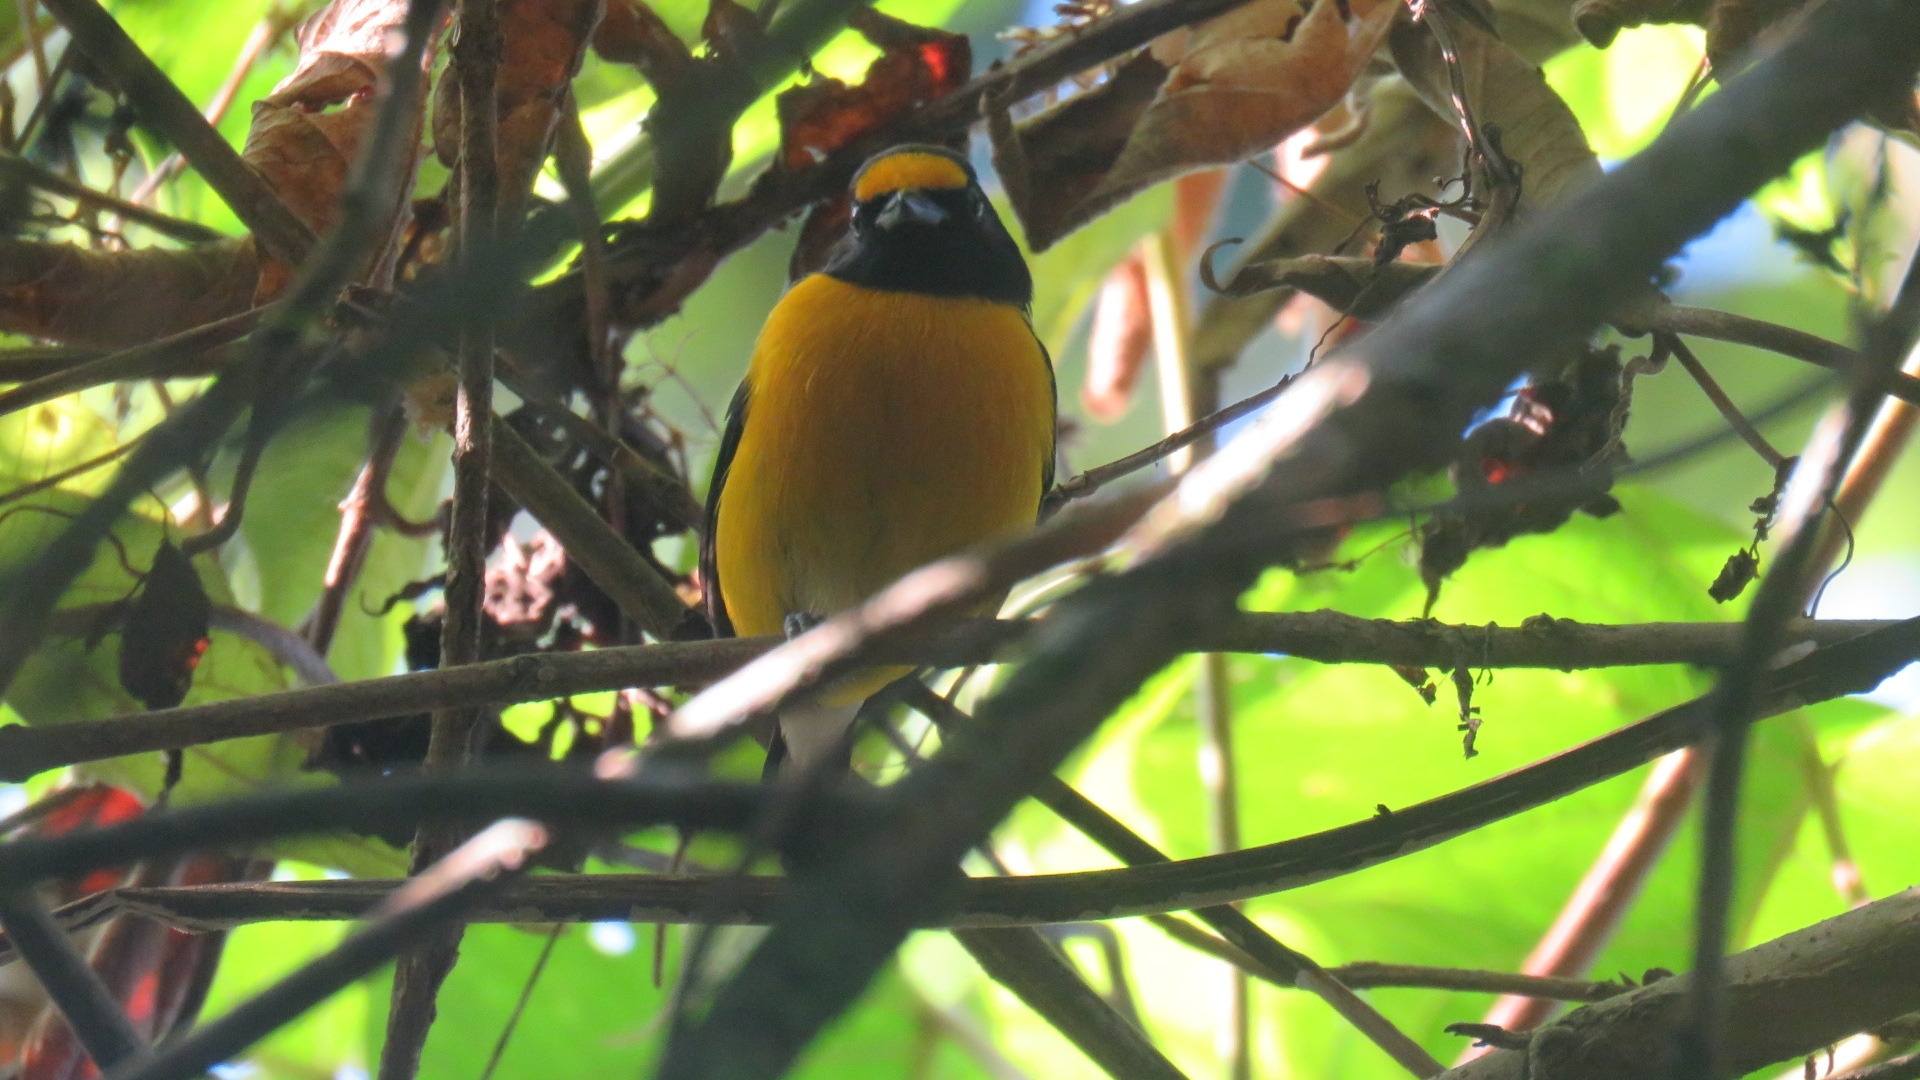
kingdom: Animalia
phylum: Chordata
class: Aves
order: Passeriformes
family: Fringillidae
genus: Euphonia
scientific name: Euphonia minuta
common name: White-vented euphonia
